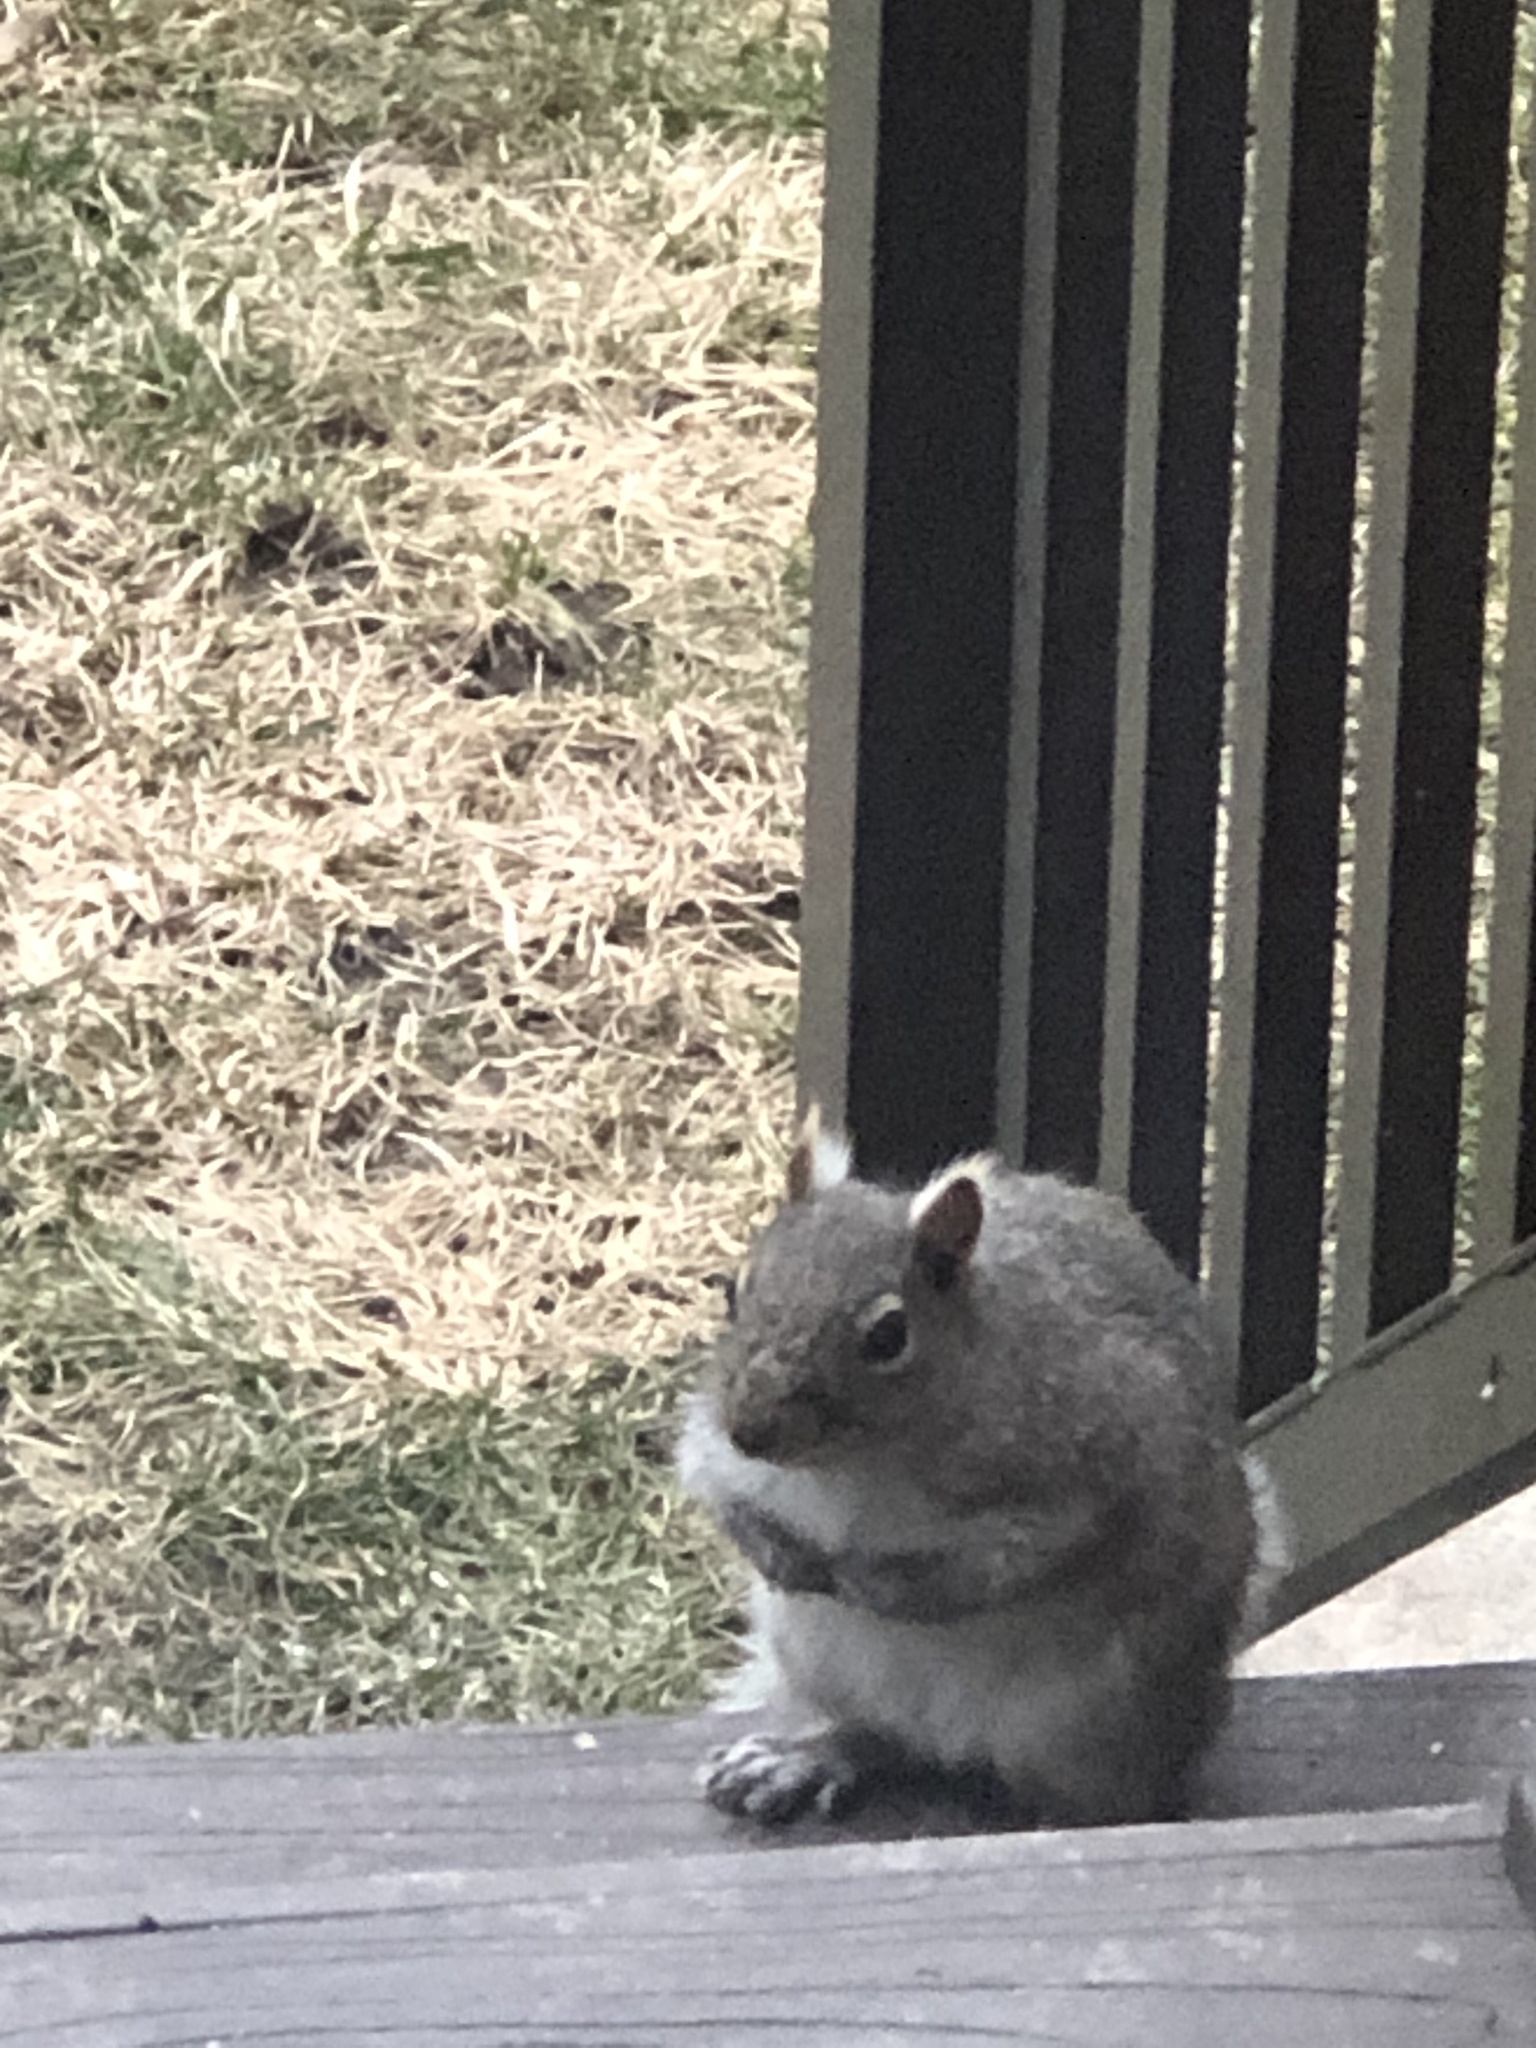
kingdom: Animalia
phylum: Chordata
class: Mammalia
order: Rodentia
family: Sciuridae
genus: Sciurus
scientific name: Sciurus carolinensis
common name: Eastern gray squirrel
